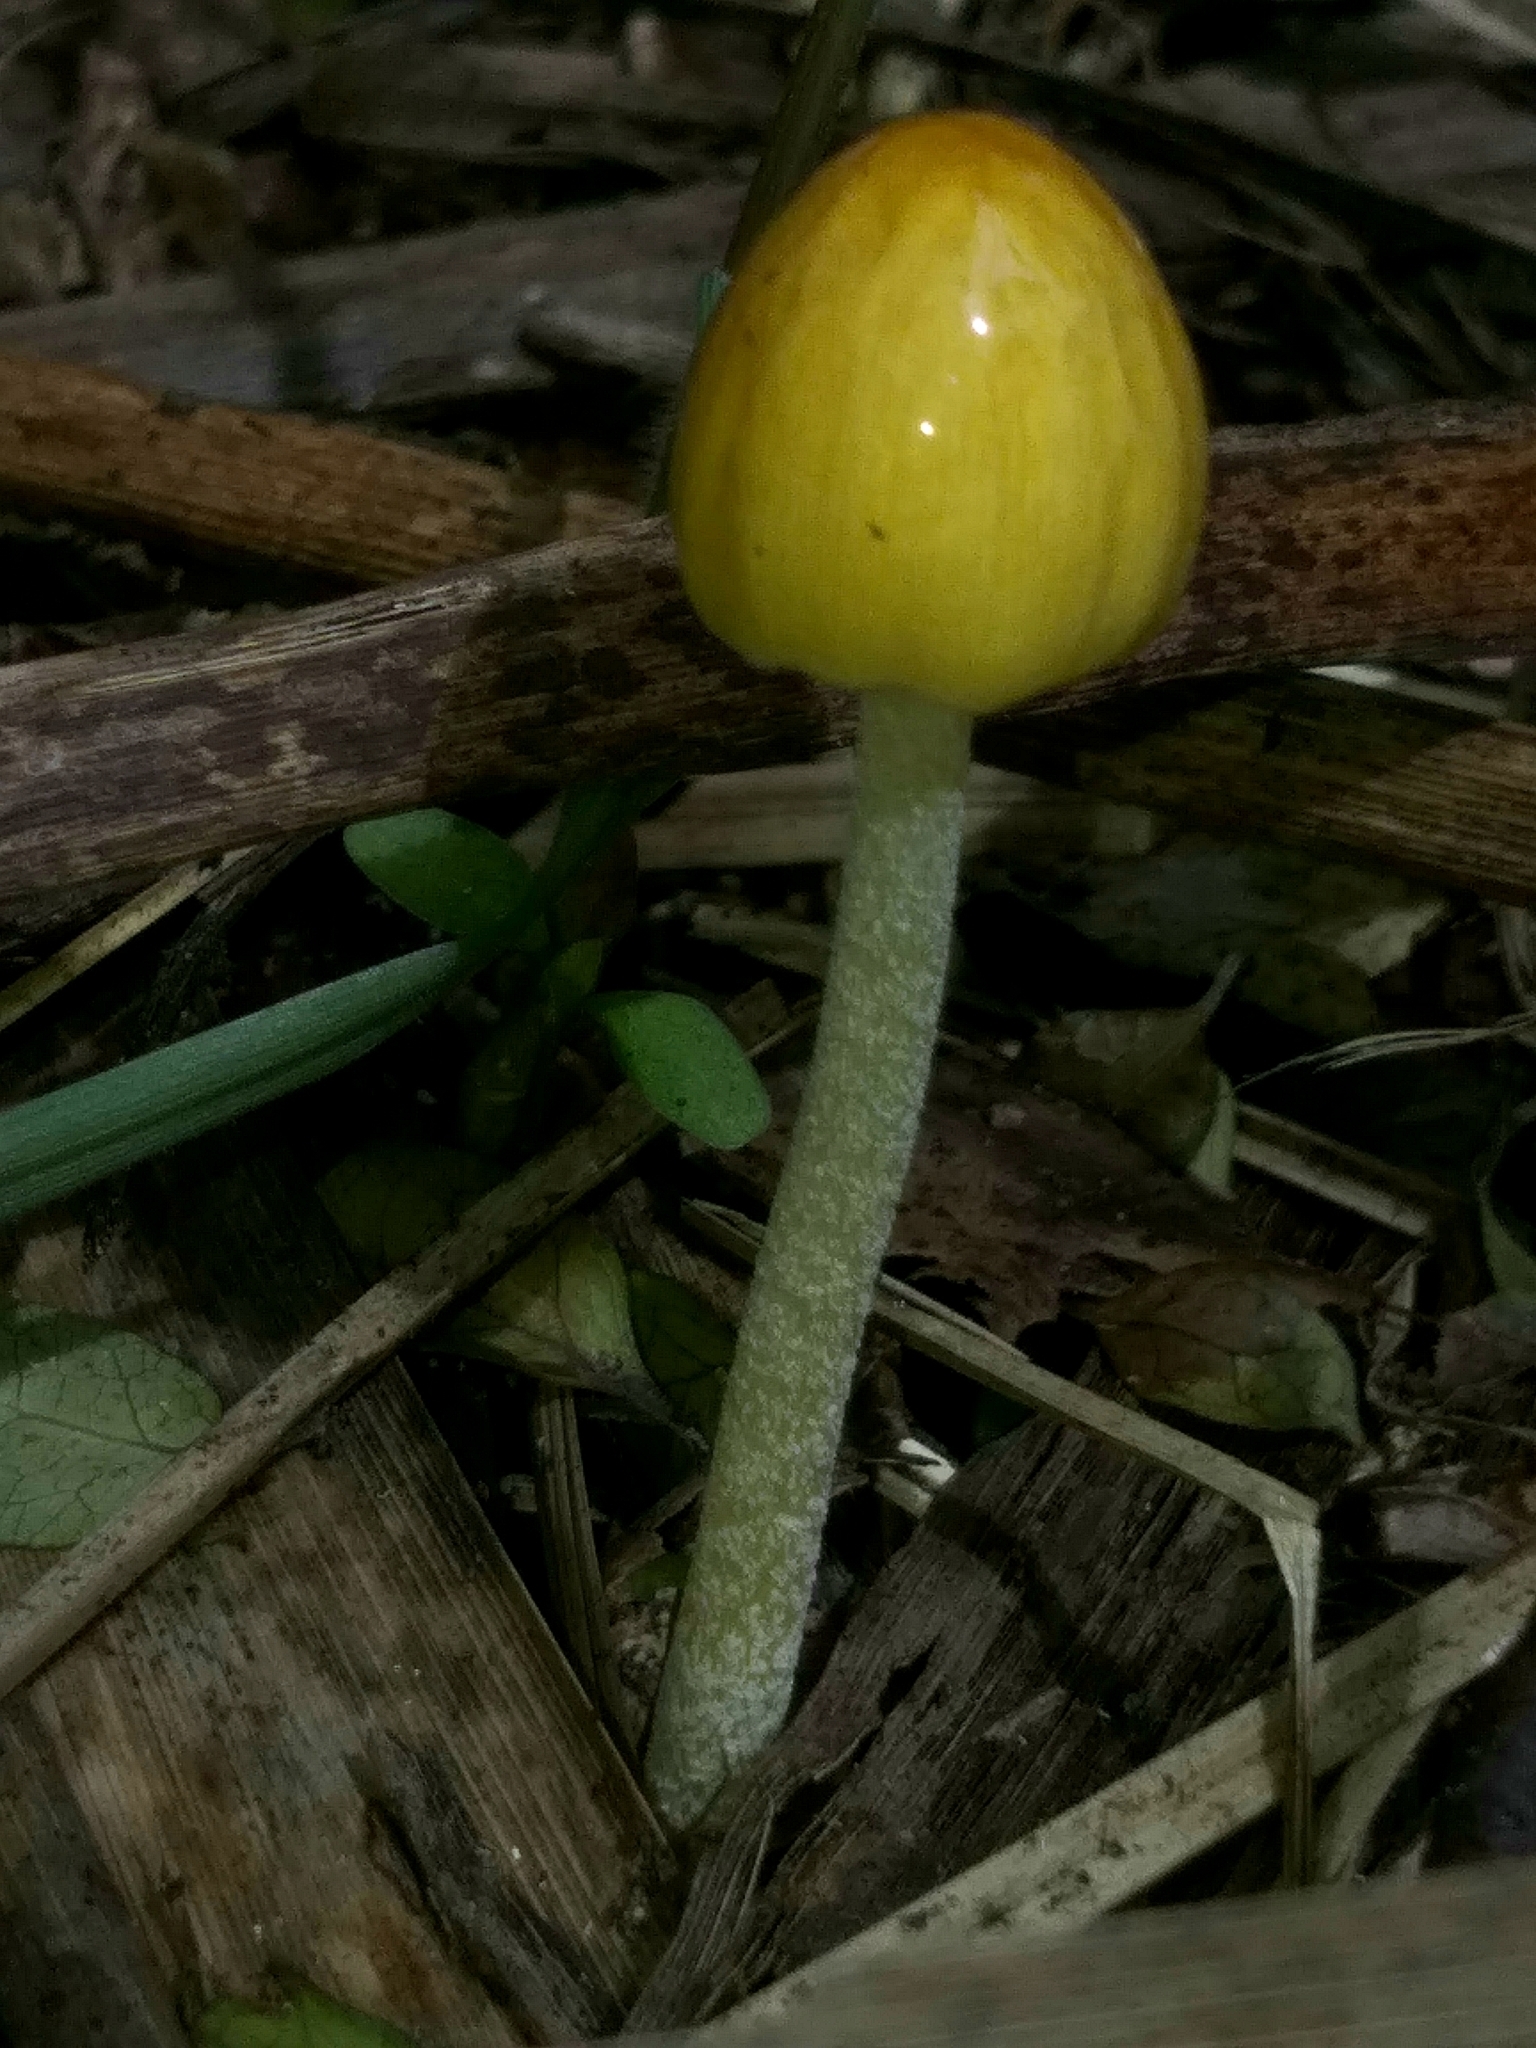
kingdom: Fungi
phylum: Basidiomycota
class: Agaricomycetes
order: Agaricales
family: Bolbitiaceae
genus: Bolbitius
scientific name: Bolbitius titubans
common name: Yellow fieldcap
